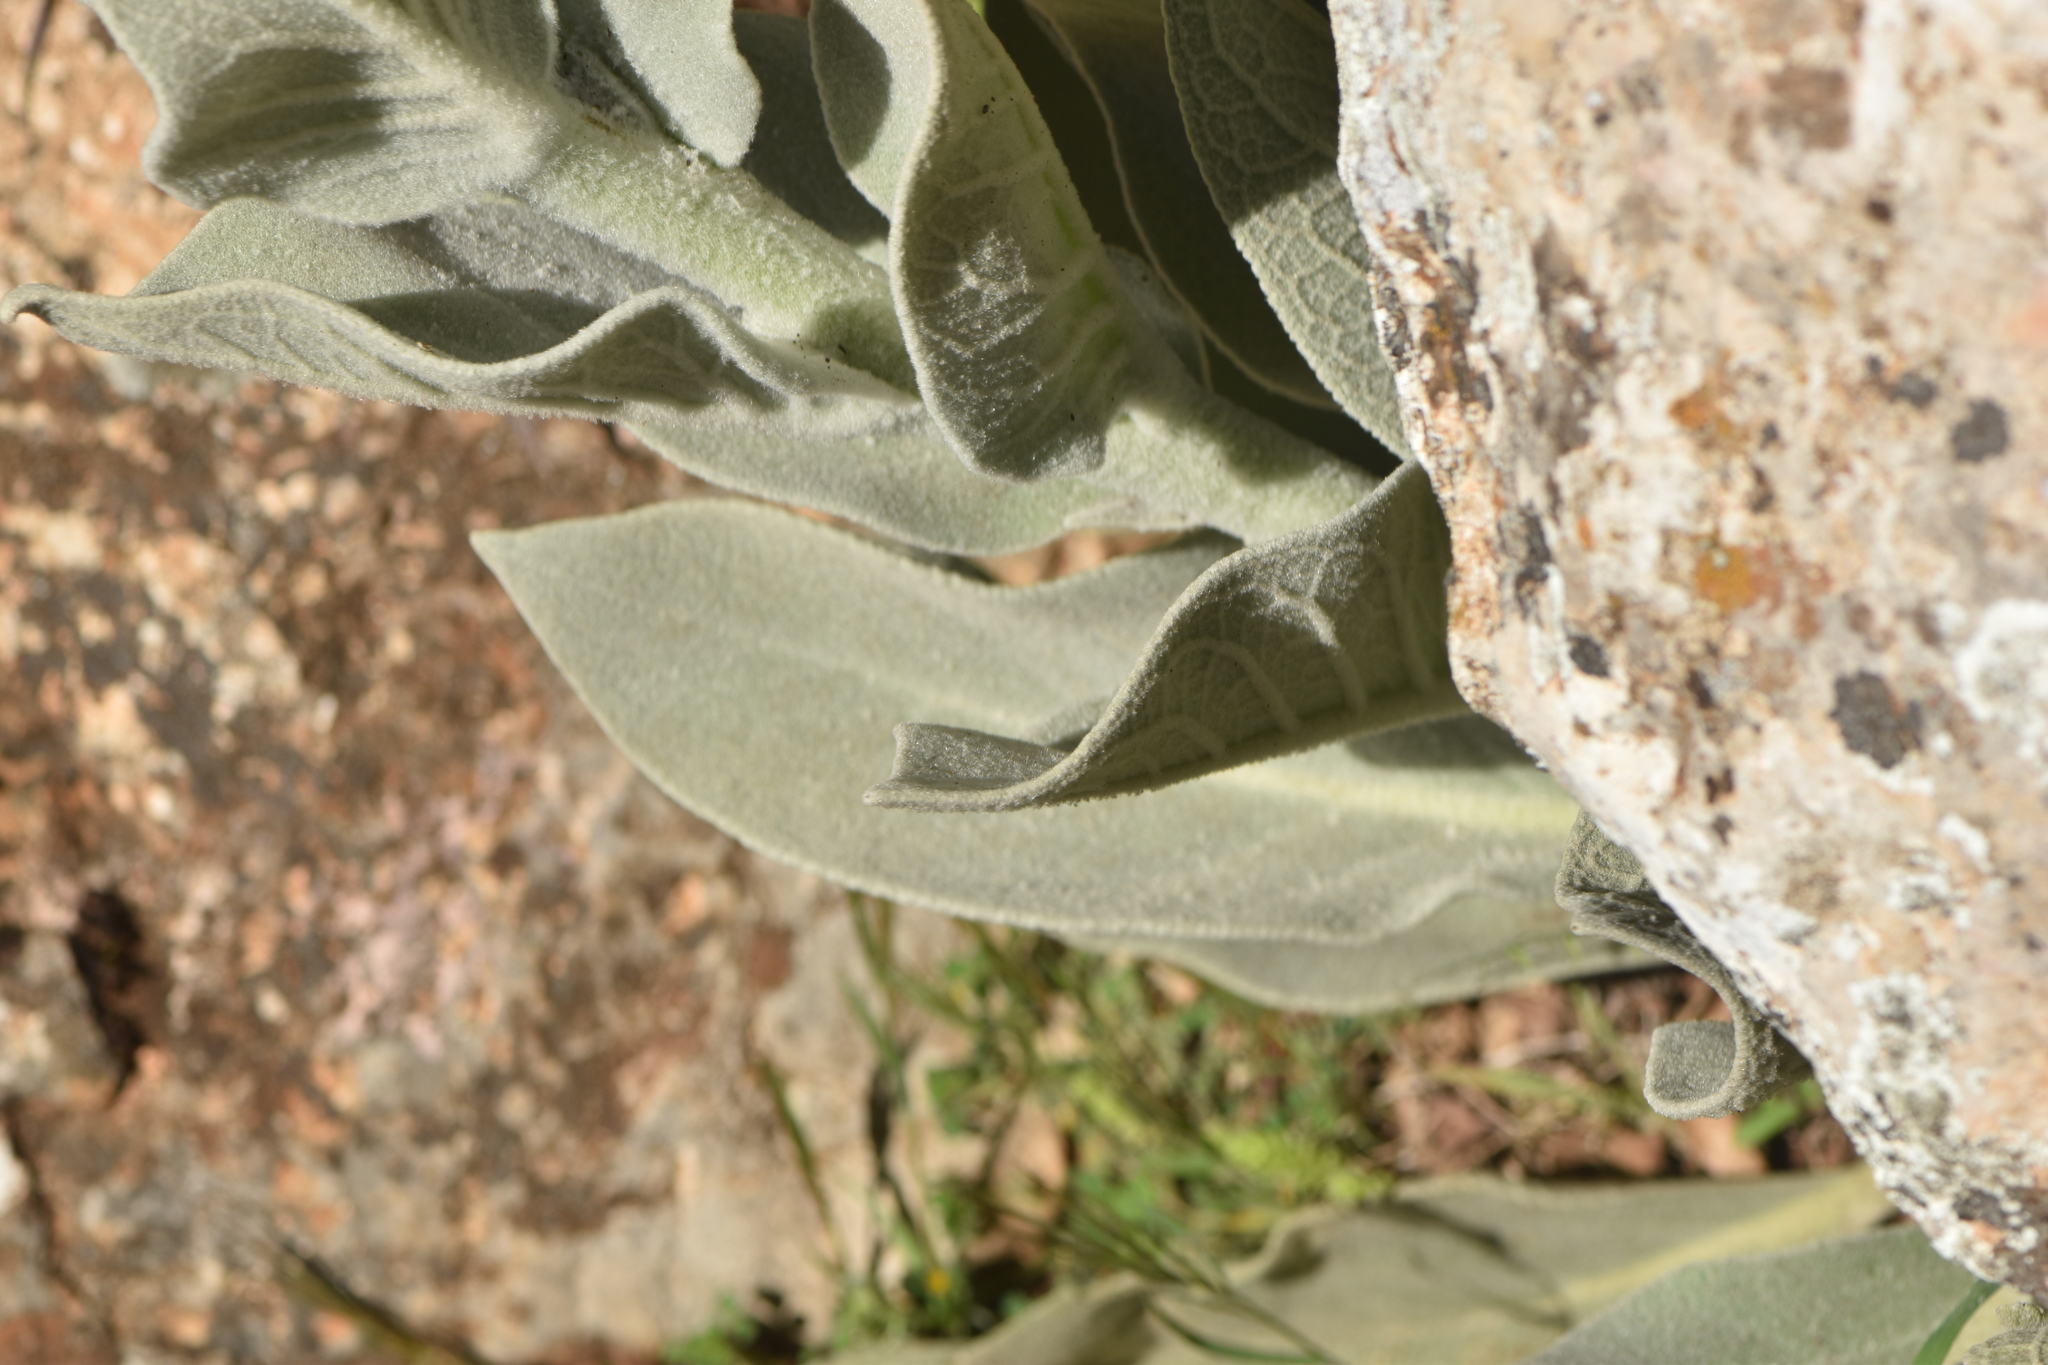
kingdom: Plantae
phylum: Tracheophyta
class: Magnoliopsida
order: Lamiales
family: Scrophulariaceae
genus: Verbascum
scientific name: Verbascum pulverulentum
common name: Broad-leaf mullein
